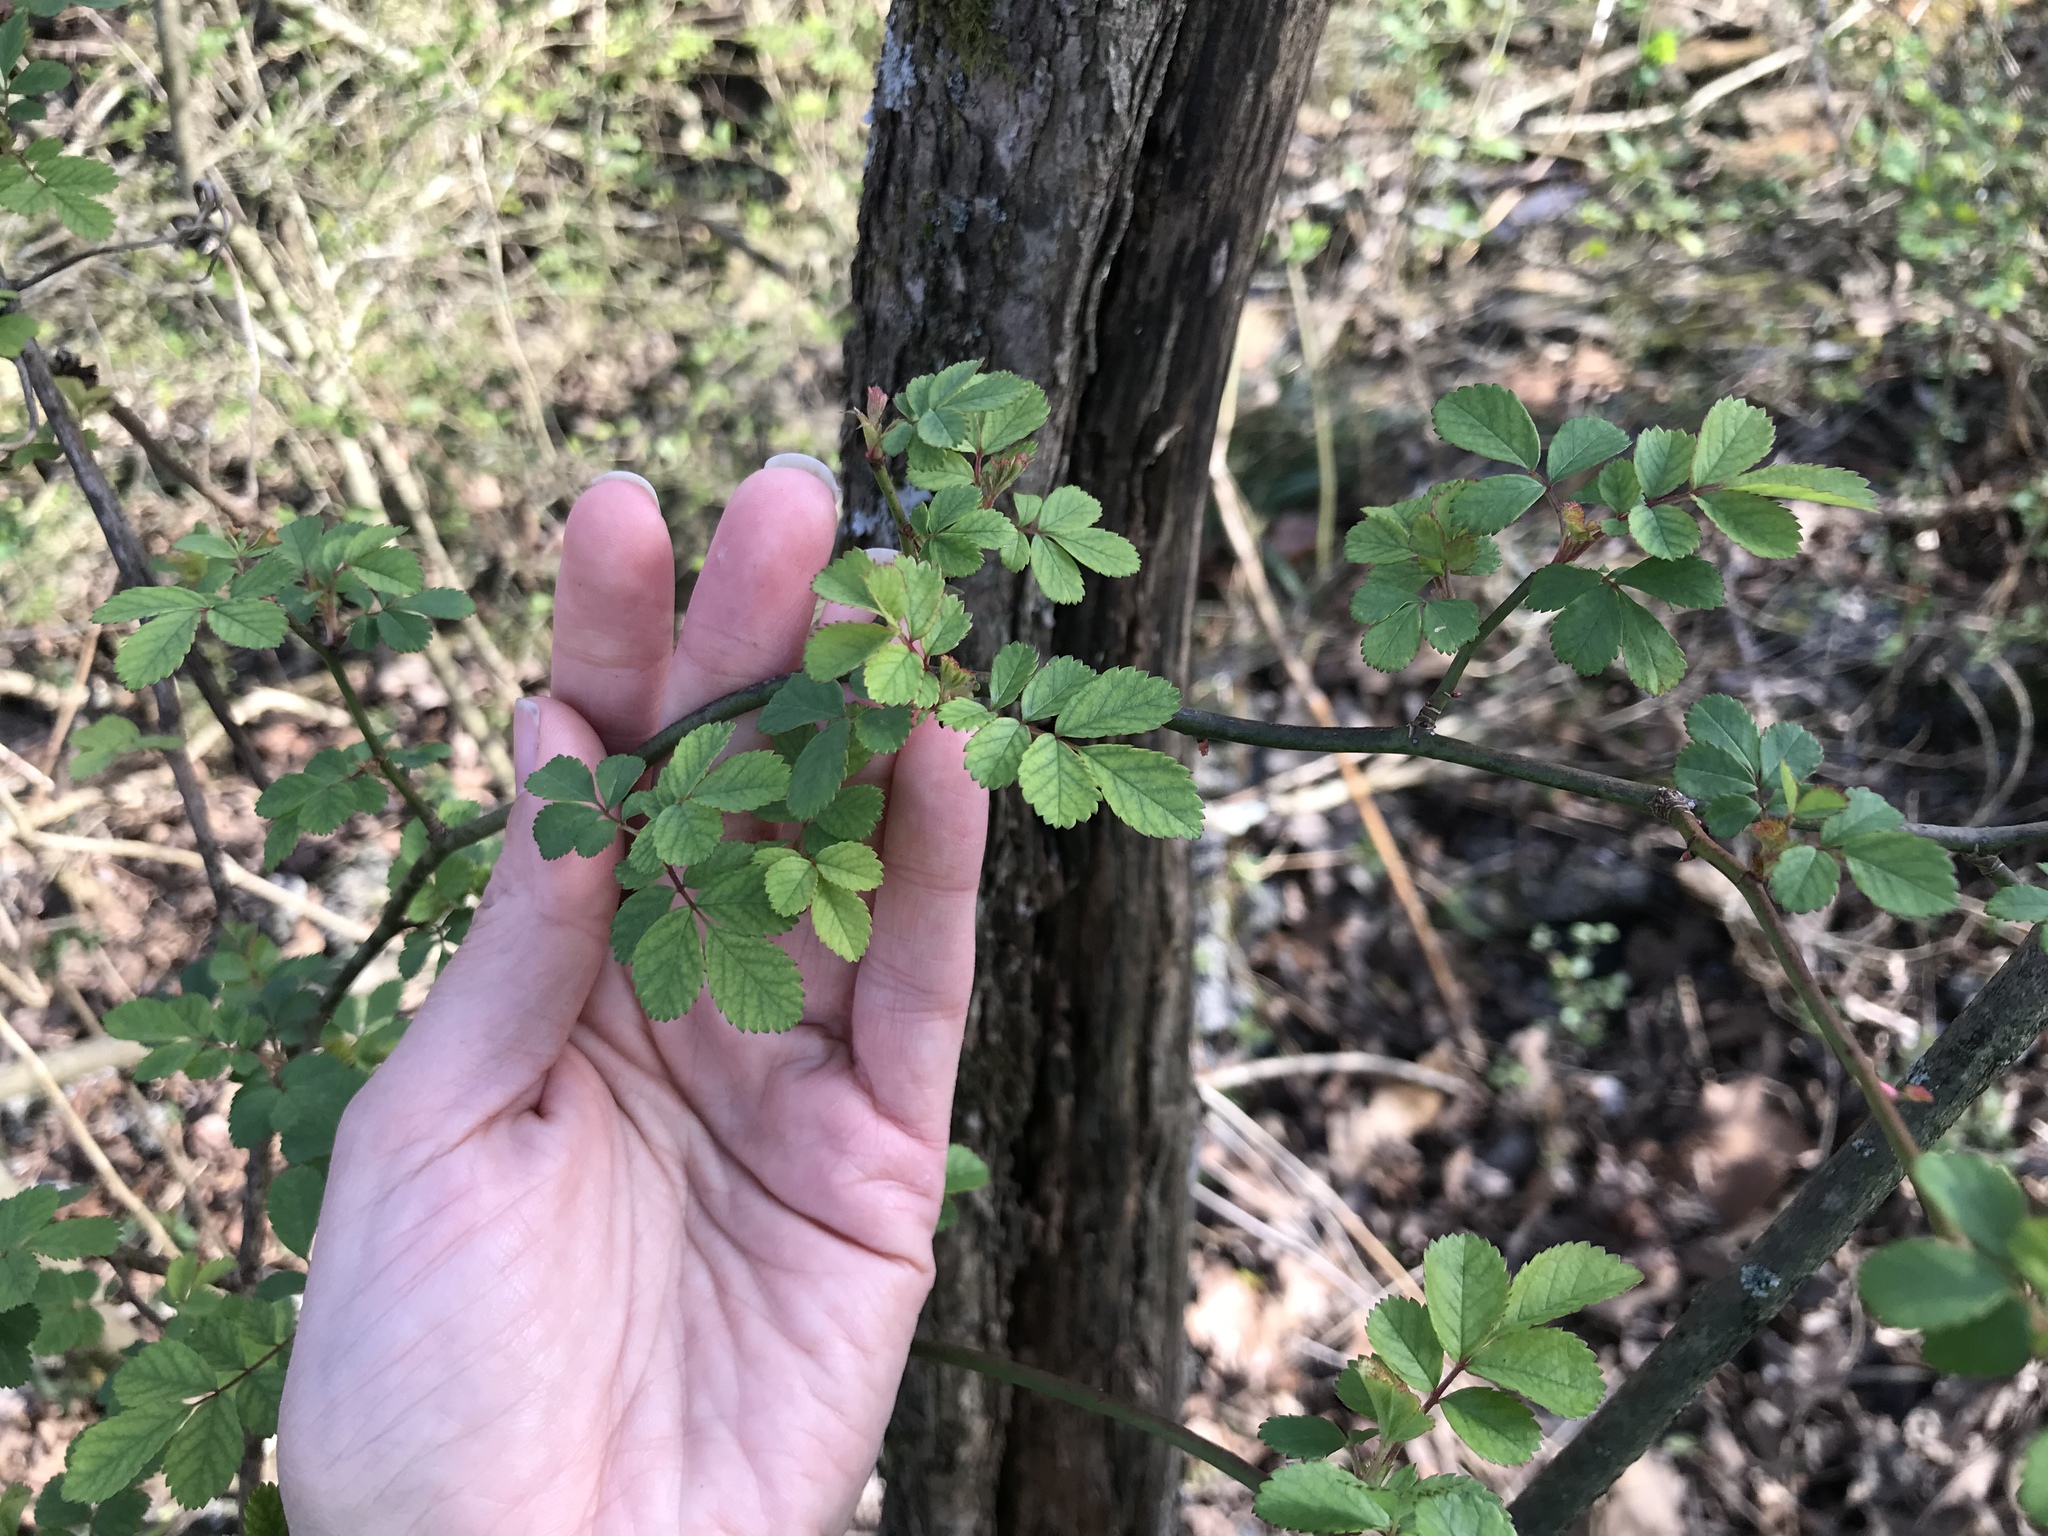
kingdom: Plantae
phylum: Tracheophyta
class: Magnoliopsida
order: Rosales
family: Rosaceae
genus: Rosa
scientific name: Rosa multiflora
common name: Multiflora rose
